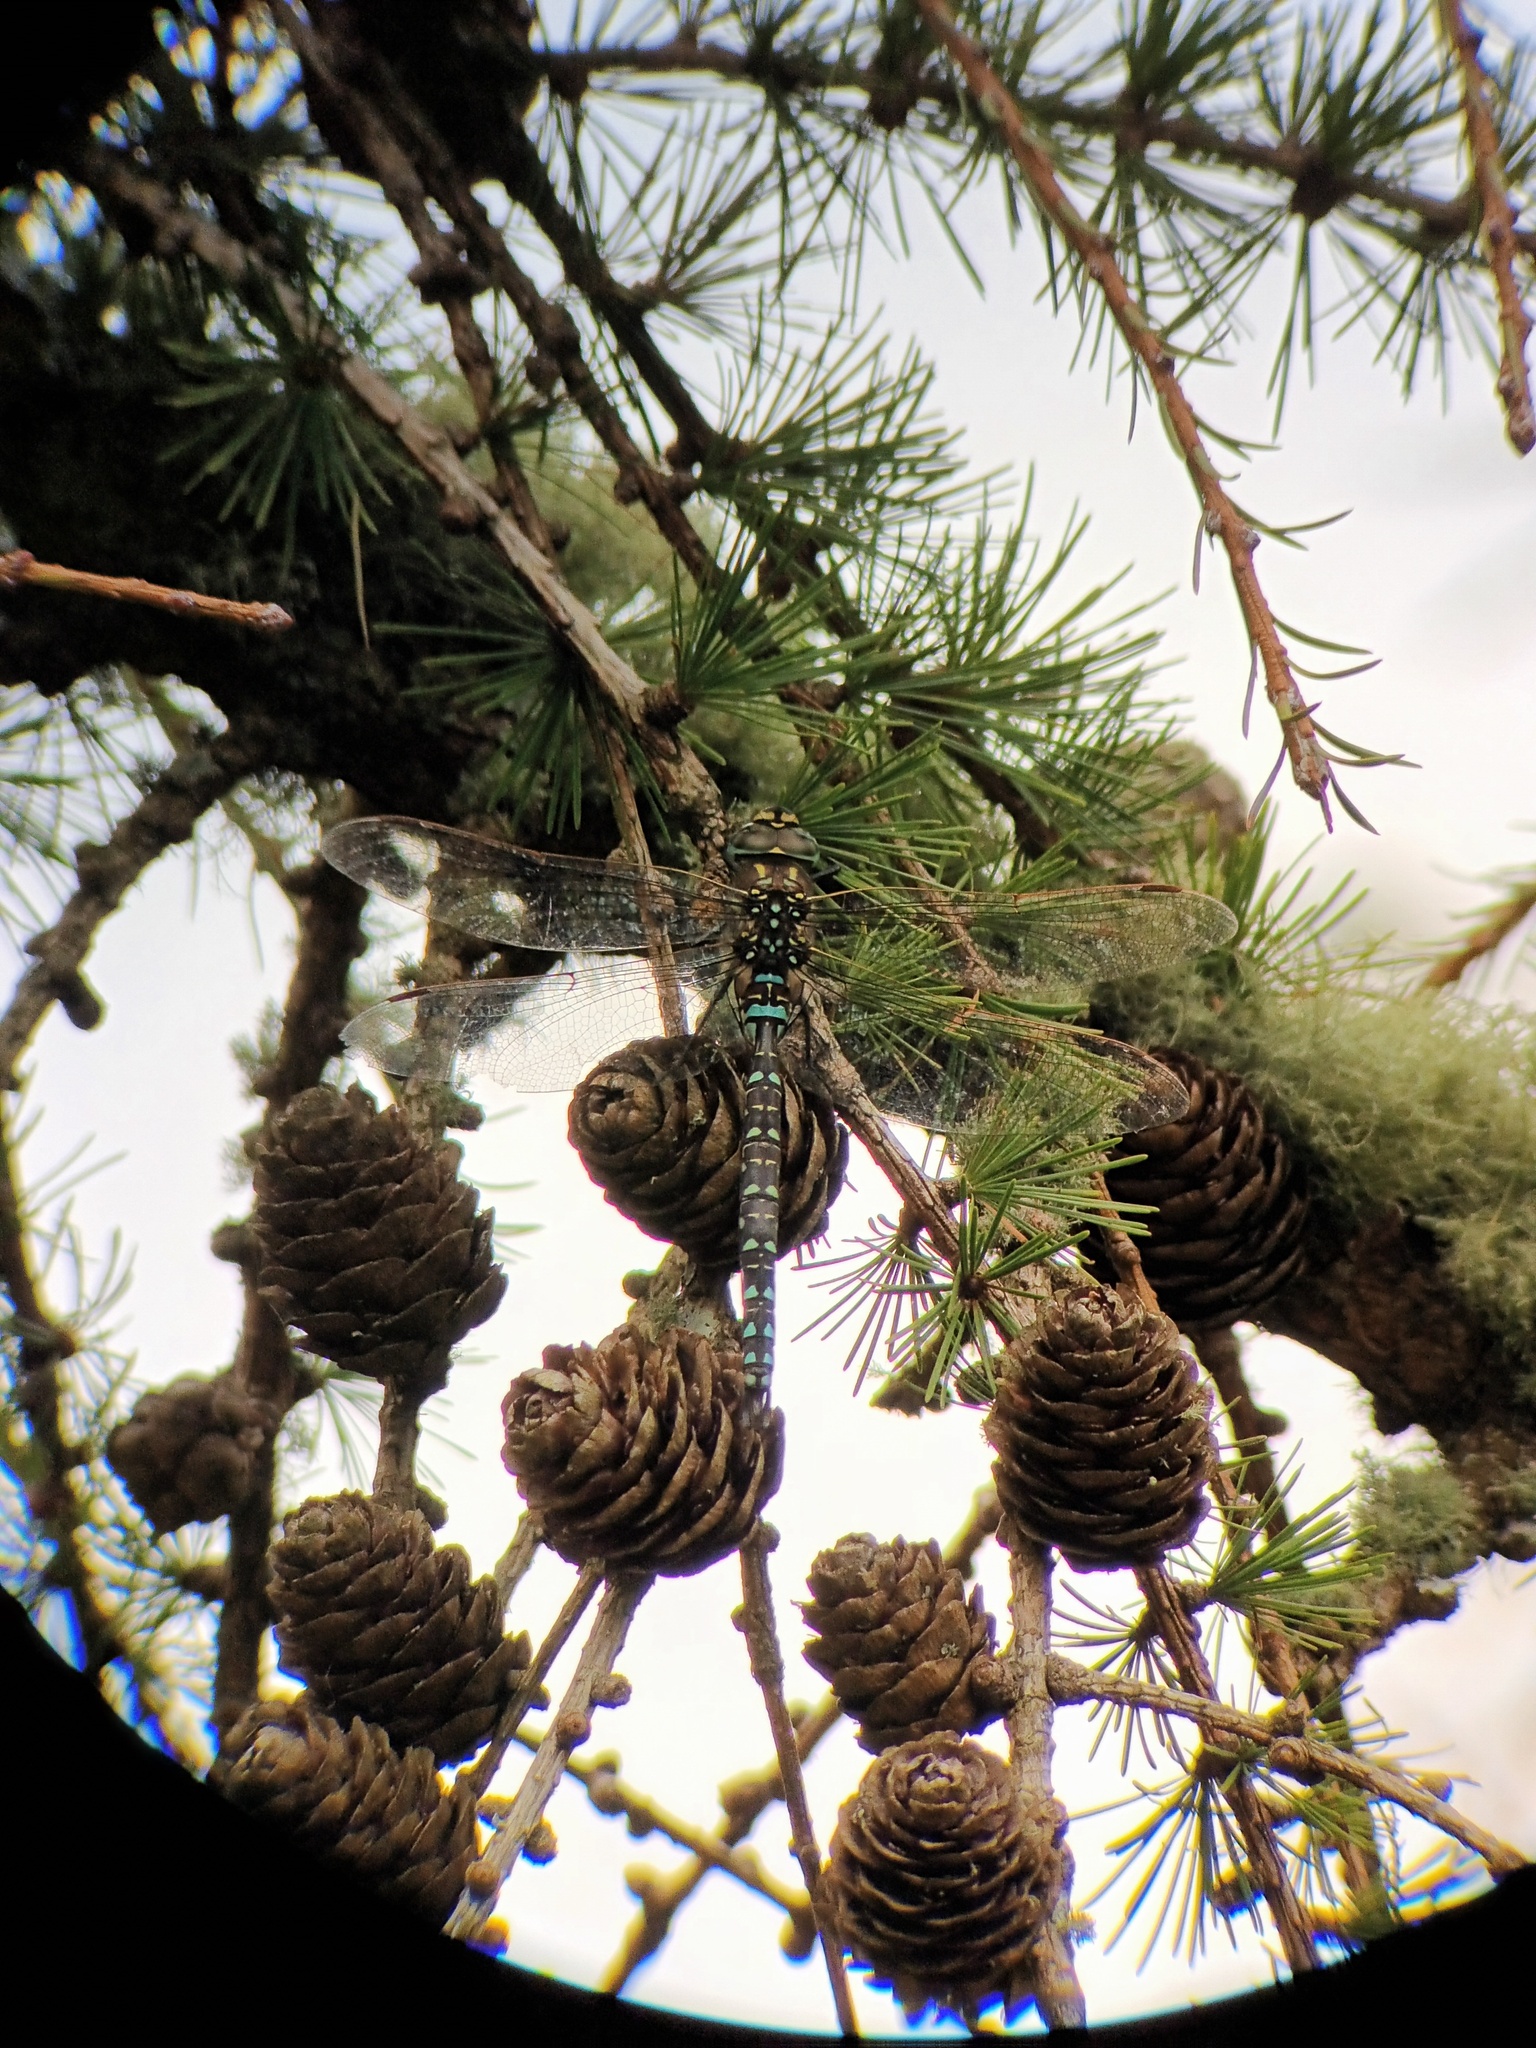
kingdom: Animalia
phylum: Arthropoda
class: Insecta
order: Odonata
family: Aeshnidae
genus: Aeshna
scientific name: Aeshna juncea
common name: Moorland hawker
